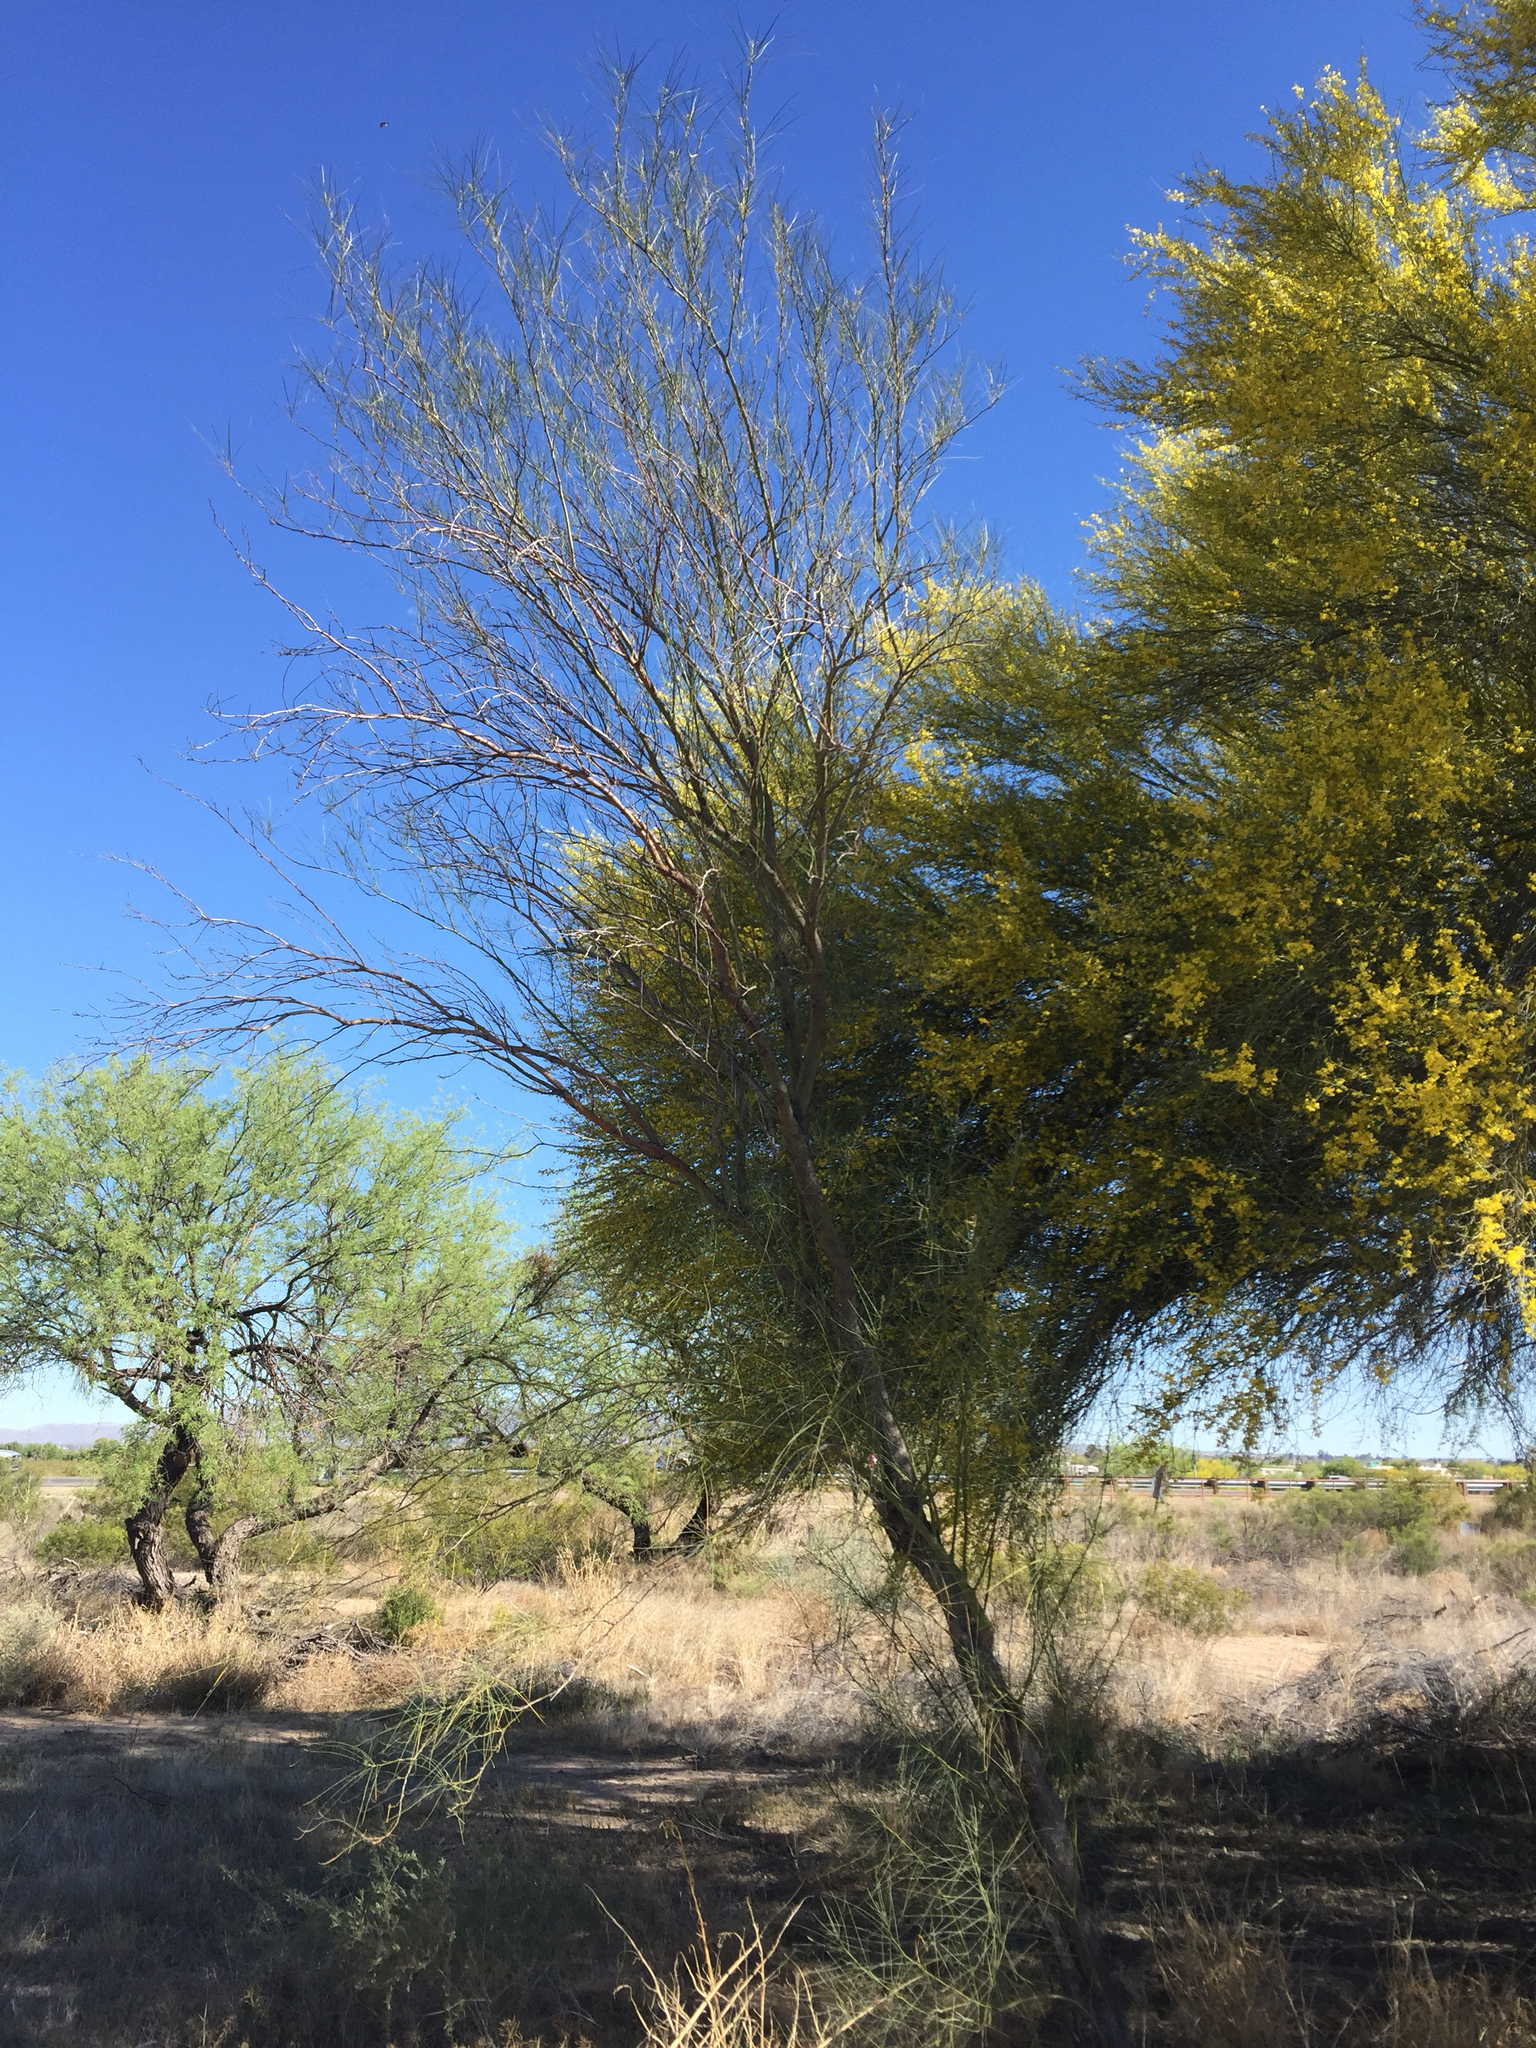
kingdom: Plantae
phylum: Tracheophyta
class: Magnoliopsida
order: Fabales
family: Fabaceae
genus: Parkinsonia
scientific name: Parkinsonia aculeata
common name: Jerusalem thorn
